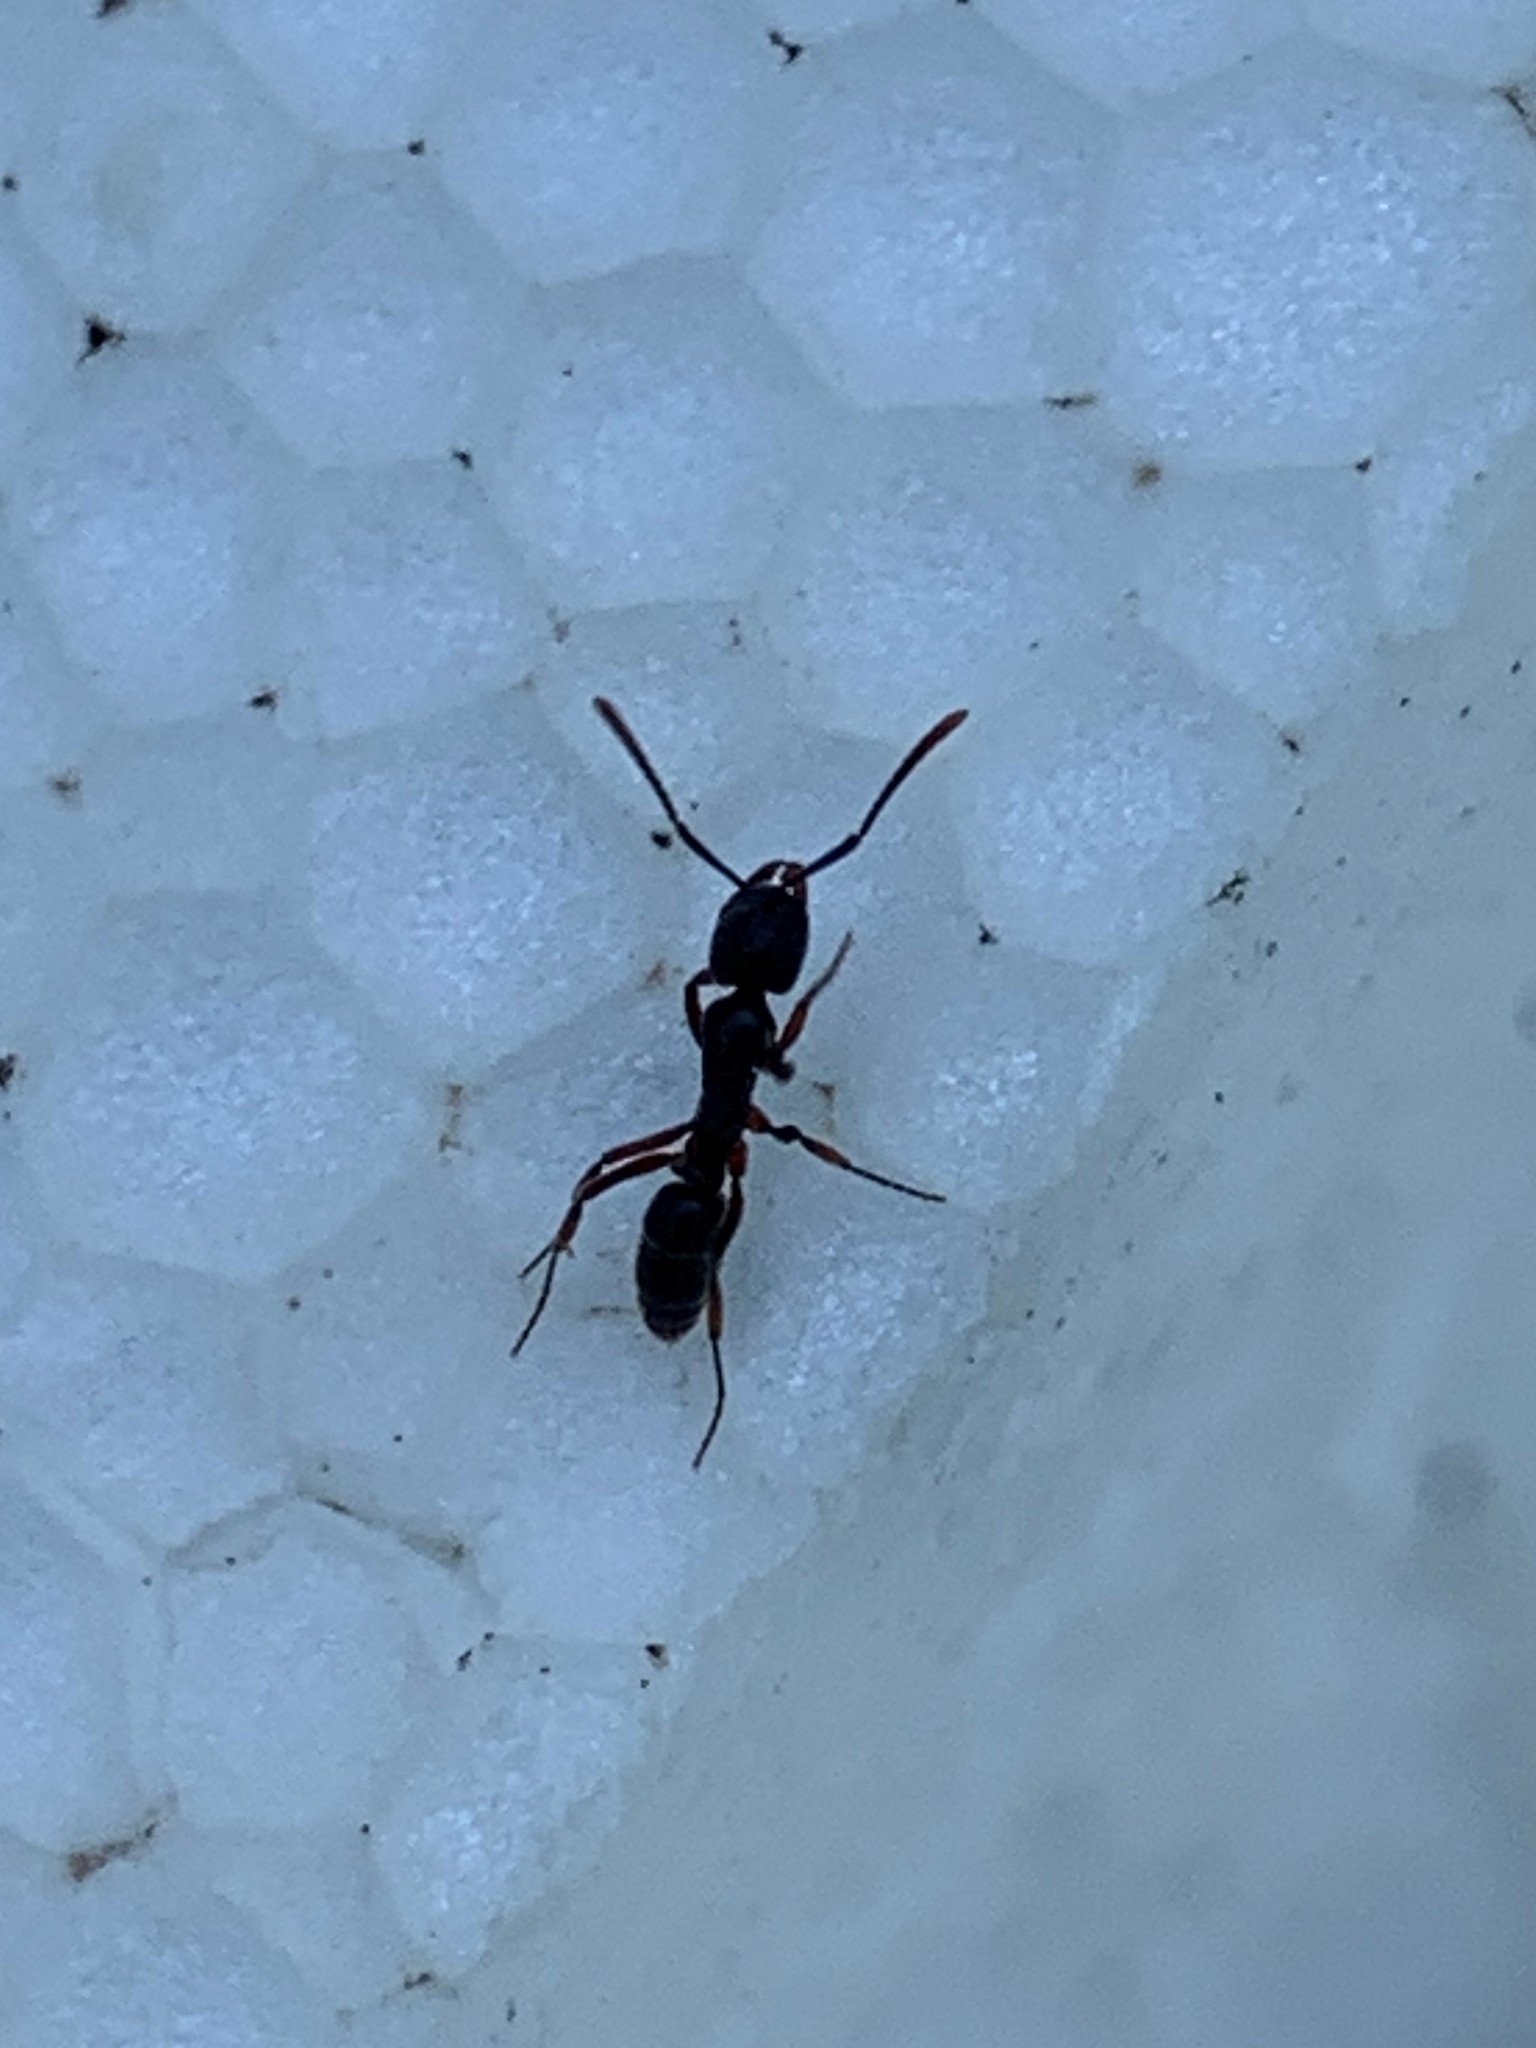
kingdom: Animalia
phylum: Arthropoda
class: Insecta
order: Hymenoptera
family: Formicidae
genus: Pachycondyla
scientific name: Pachycondyla chinensis
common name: Asian needle ant
